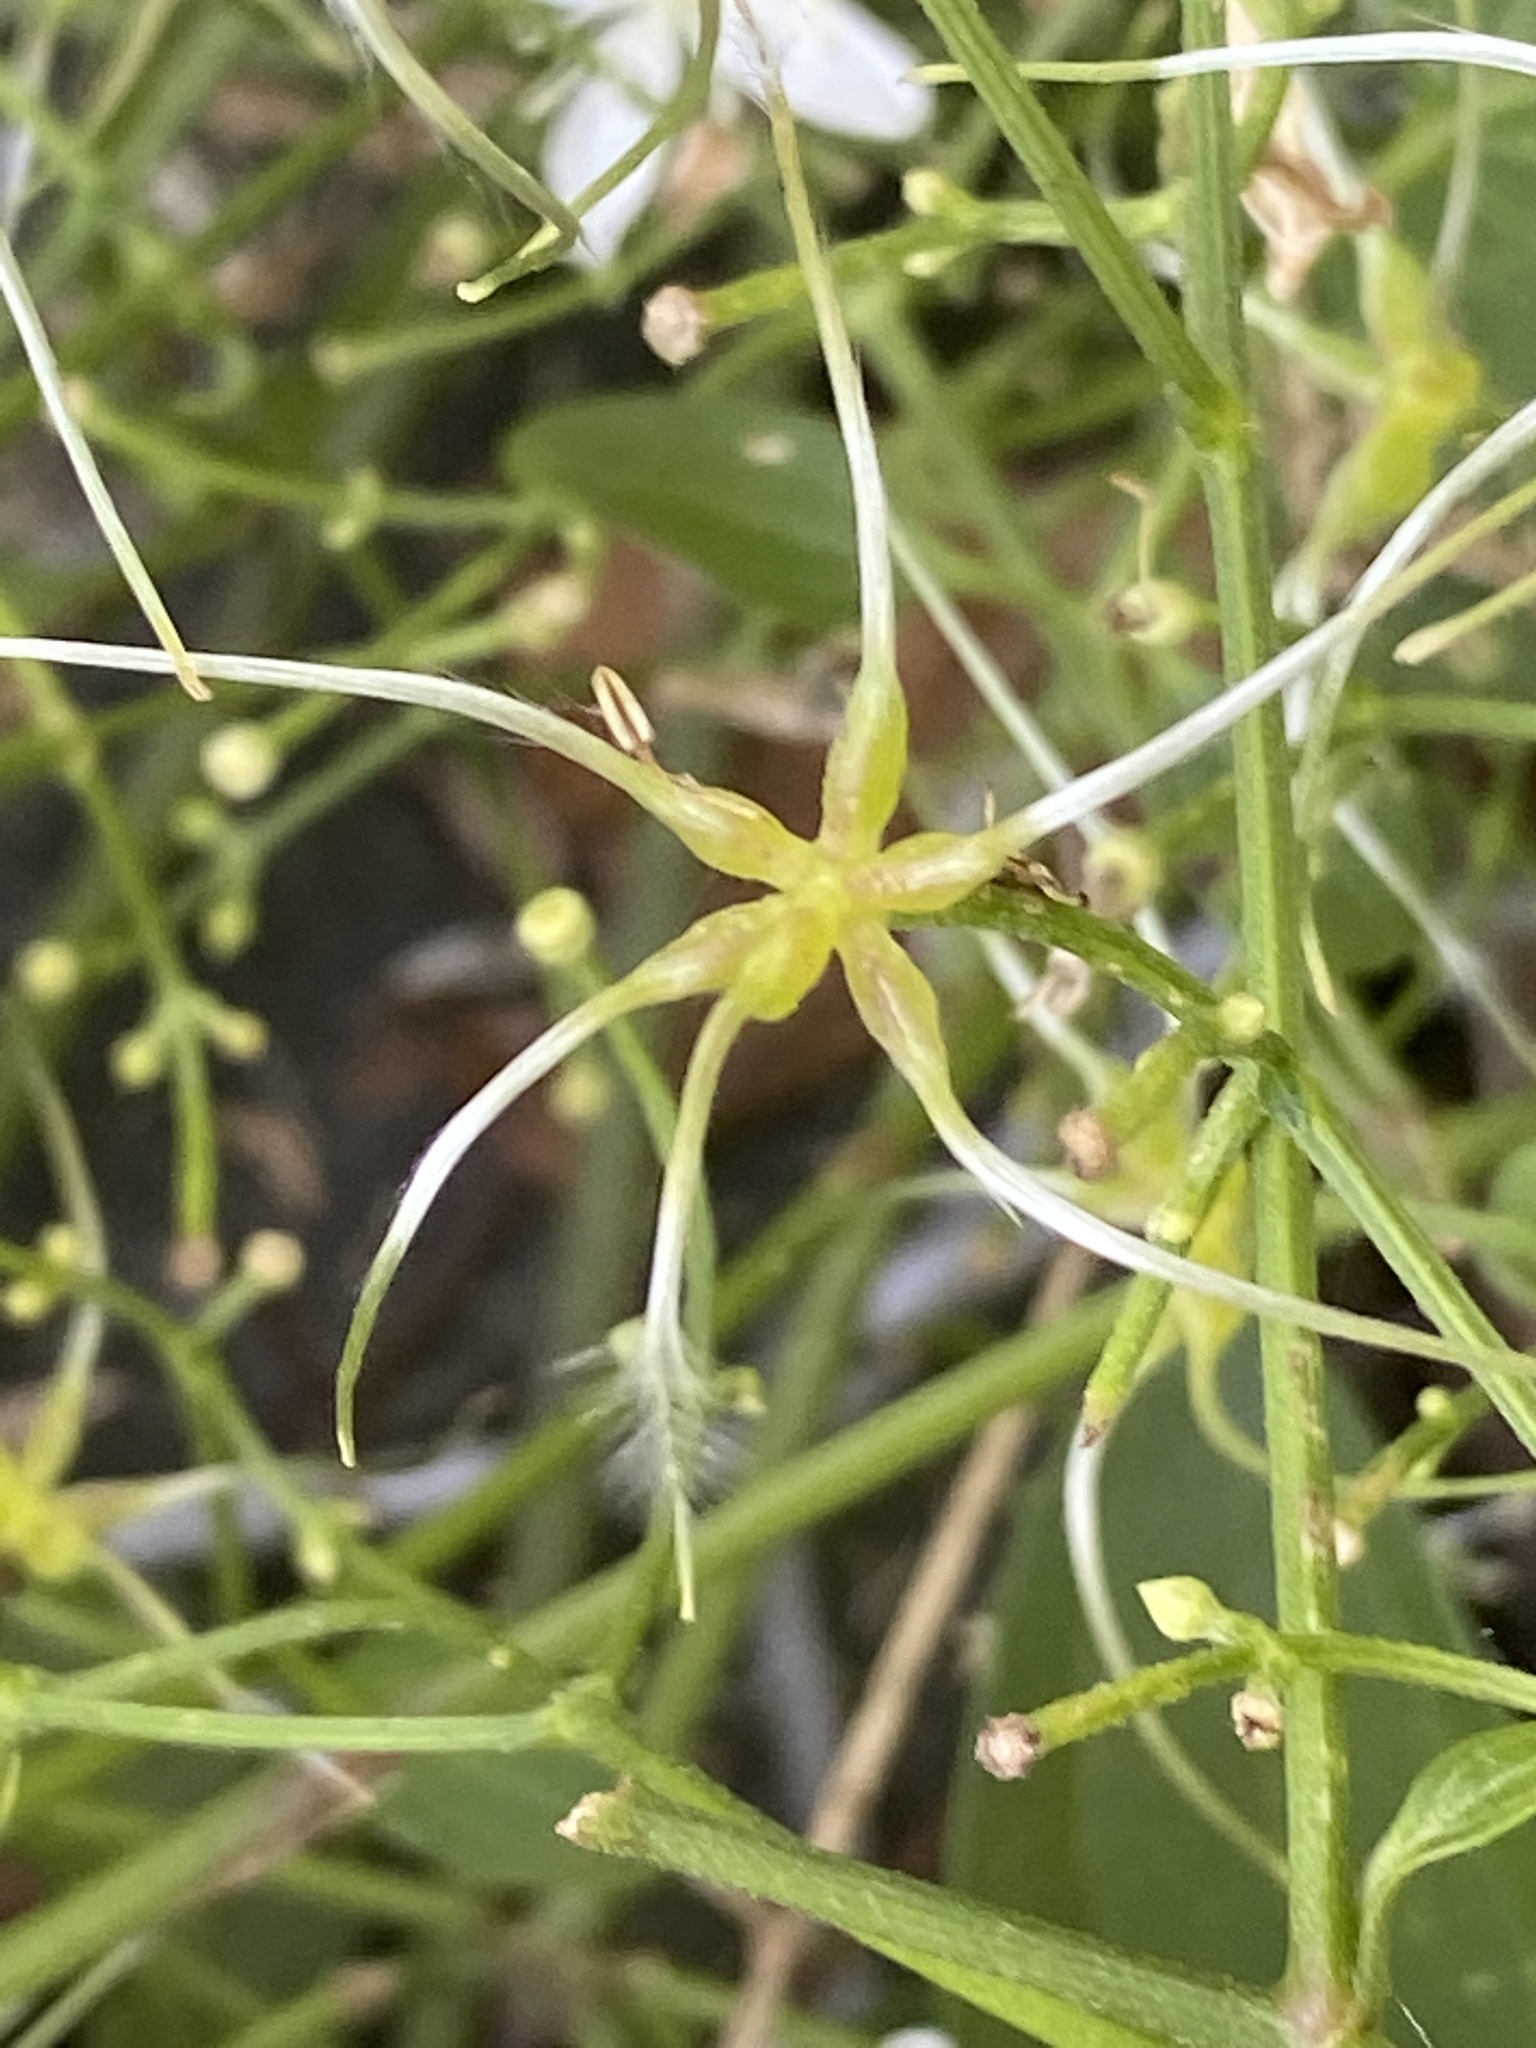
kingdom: Plantae
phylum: Tracheophyta
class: Magnoliopsida
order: Ranunculales
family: Ranunculaceae
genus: Clematis
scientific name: Clematis terniflora
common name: Sweet autumn clematis
